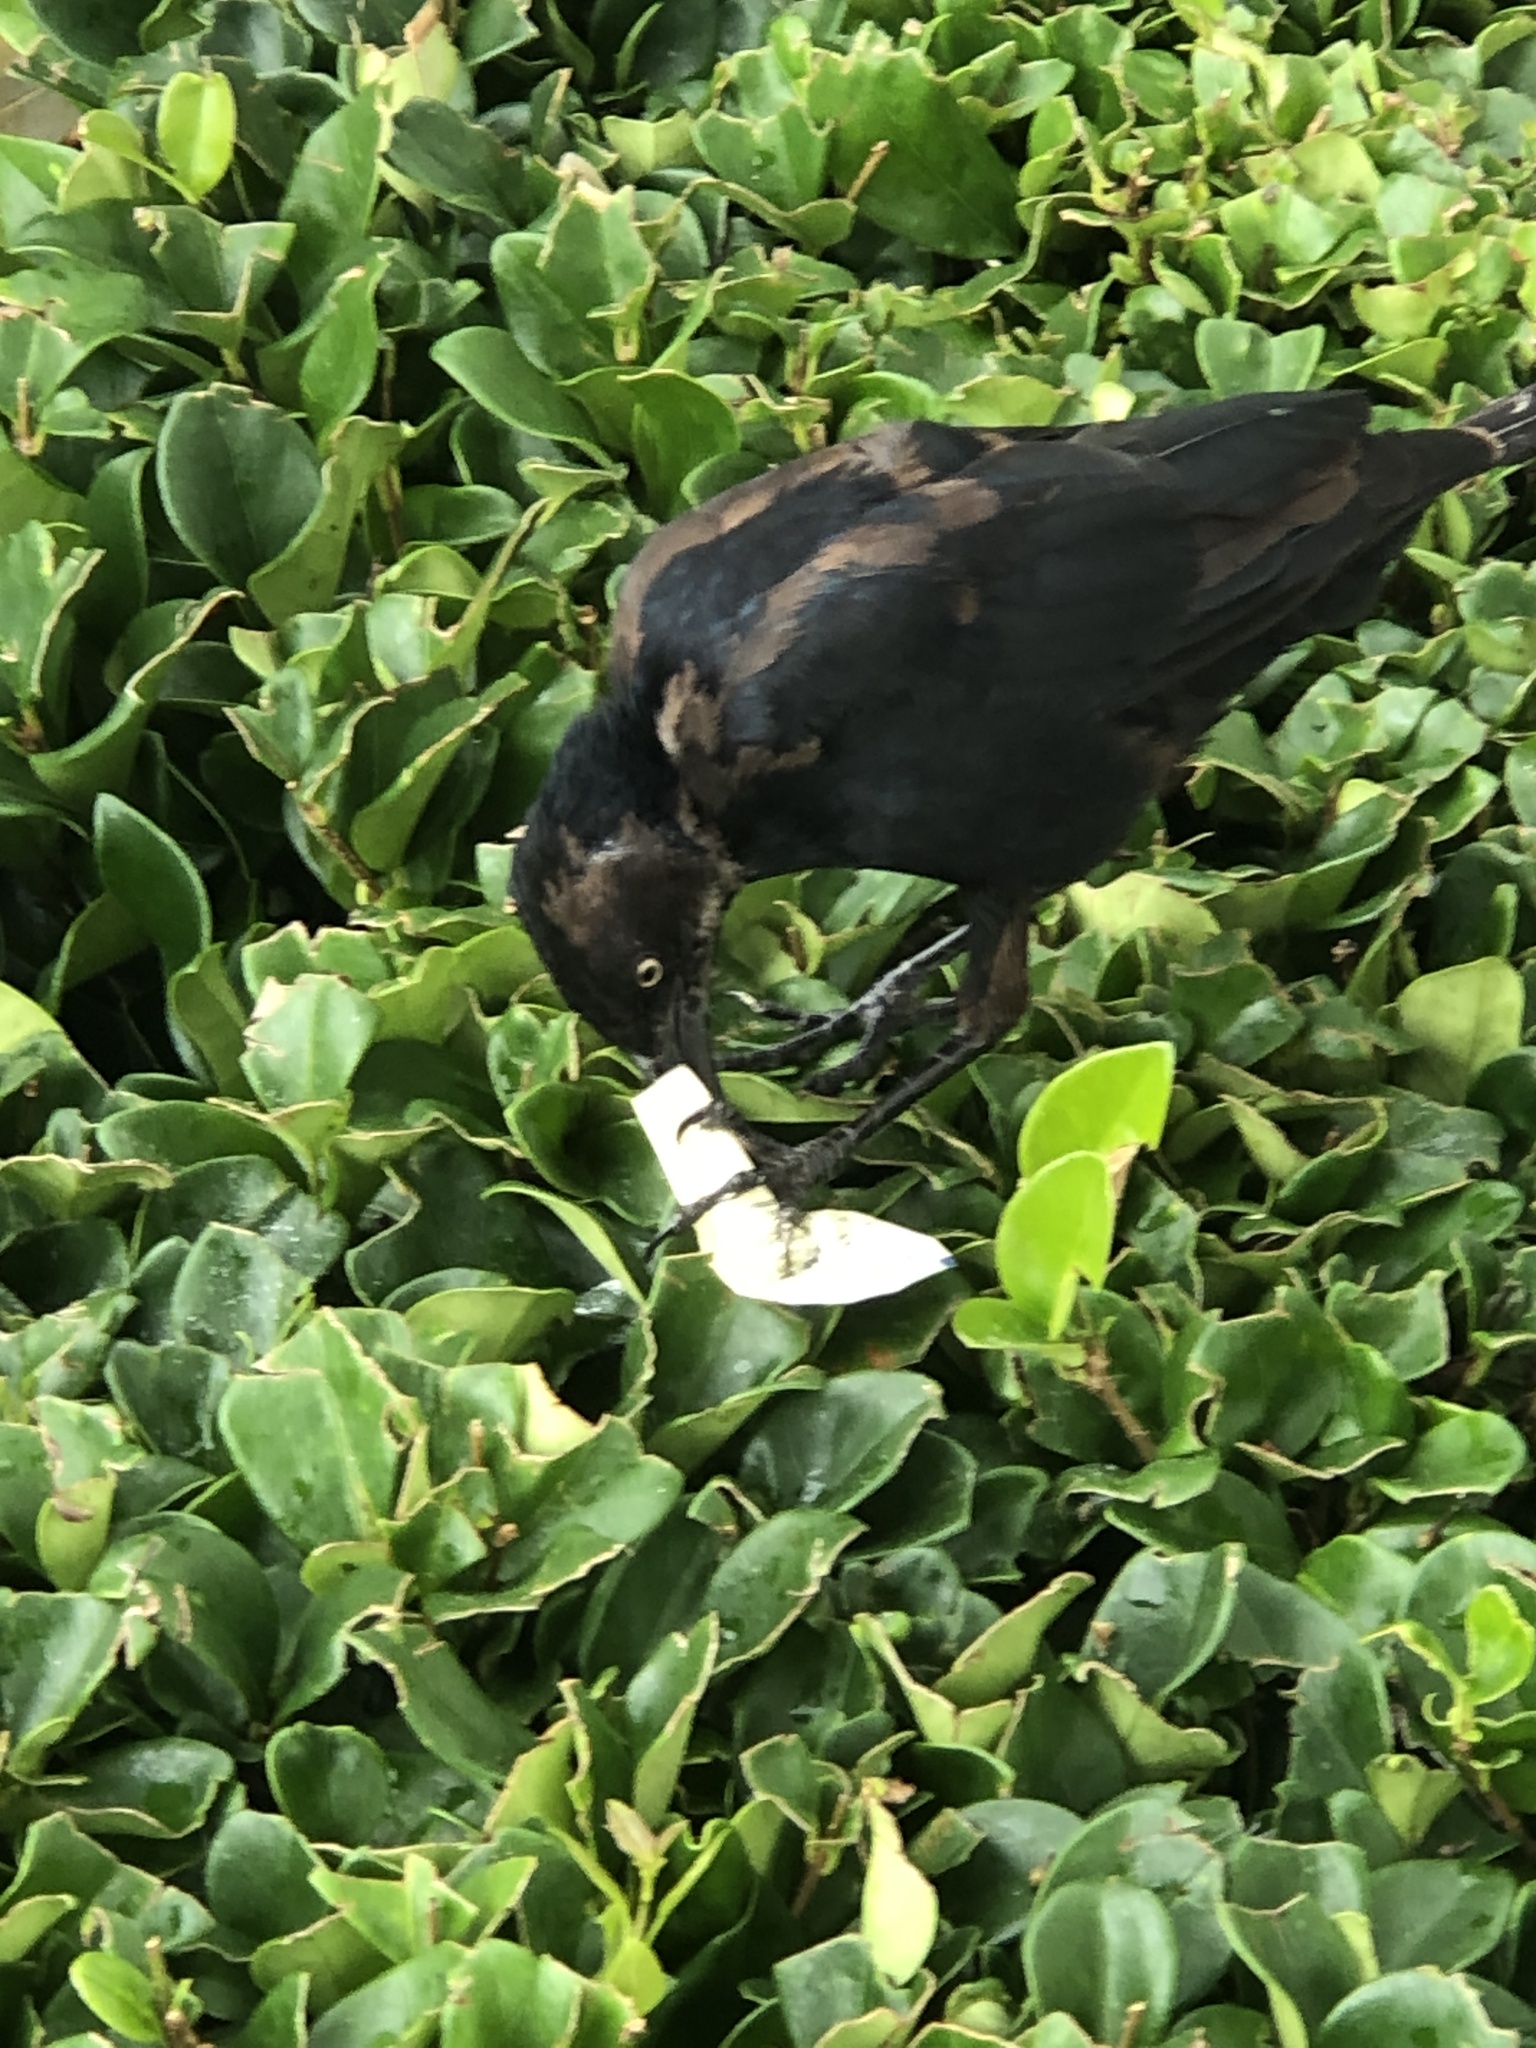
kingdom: Animalia
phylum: Chordata
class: Aves
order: Passeriformes
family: Icteridae
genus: Quiscalus
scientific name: Quiscalus mexicanus
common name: Great-tailed grackle
